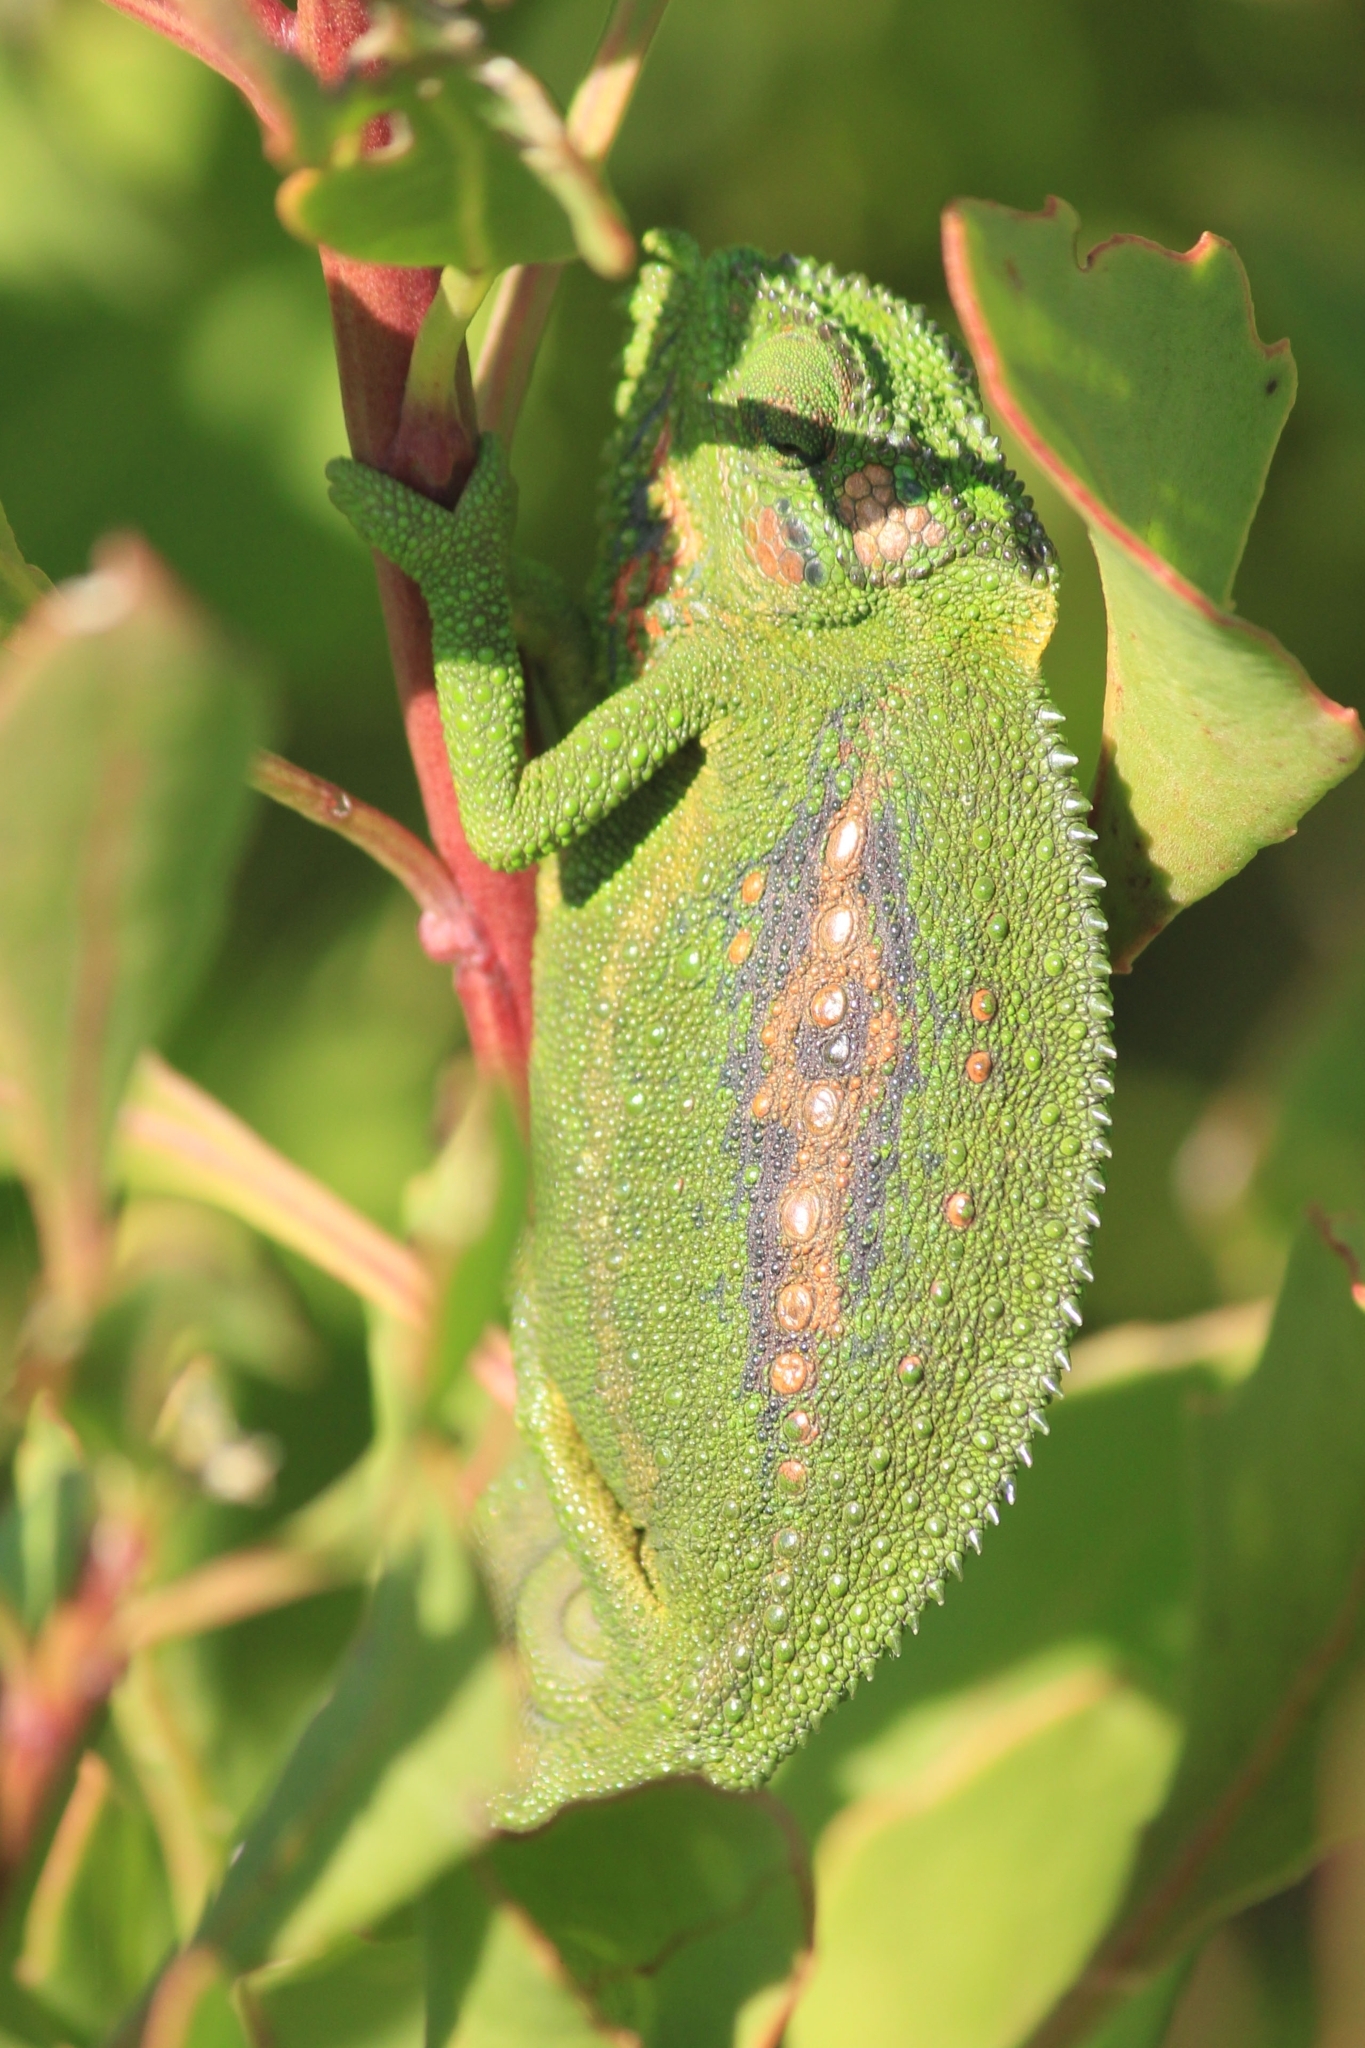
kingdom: Animalia
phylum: Chordata
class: Squamata
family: Chamaeleonidae
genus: Bradypodion
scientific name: Bradypodion pumilum
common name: Cape dwarf chameleon
